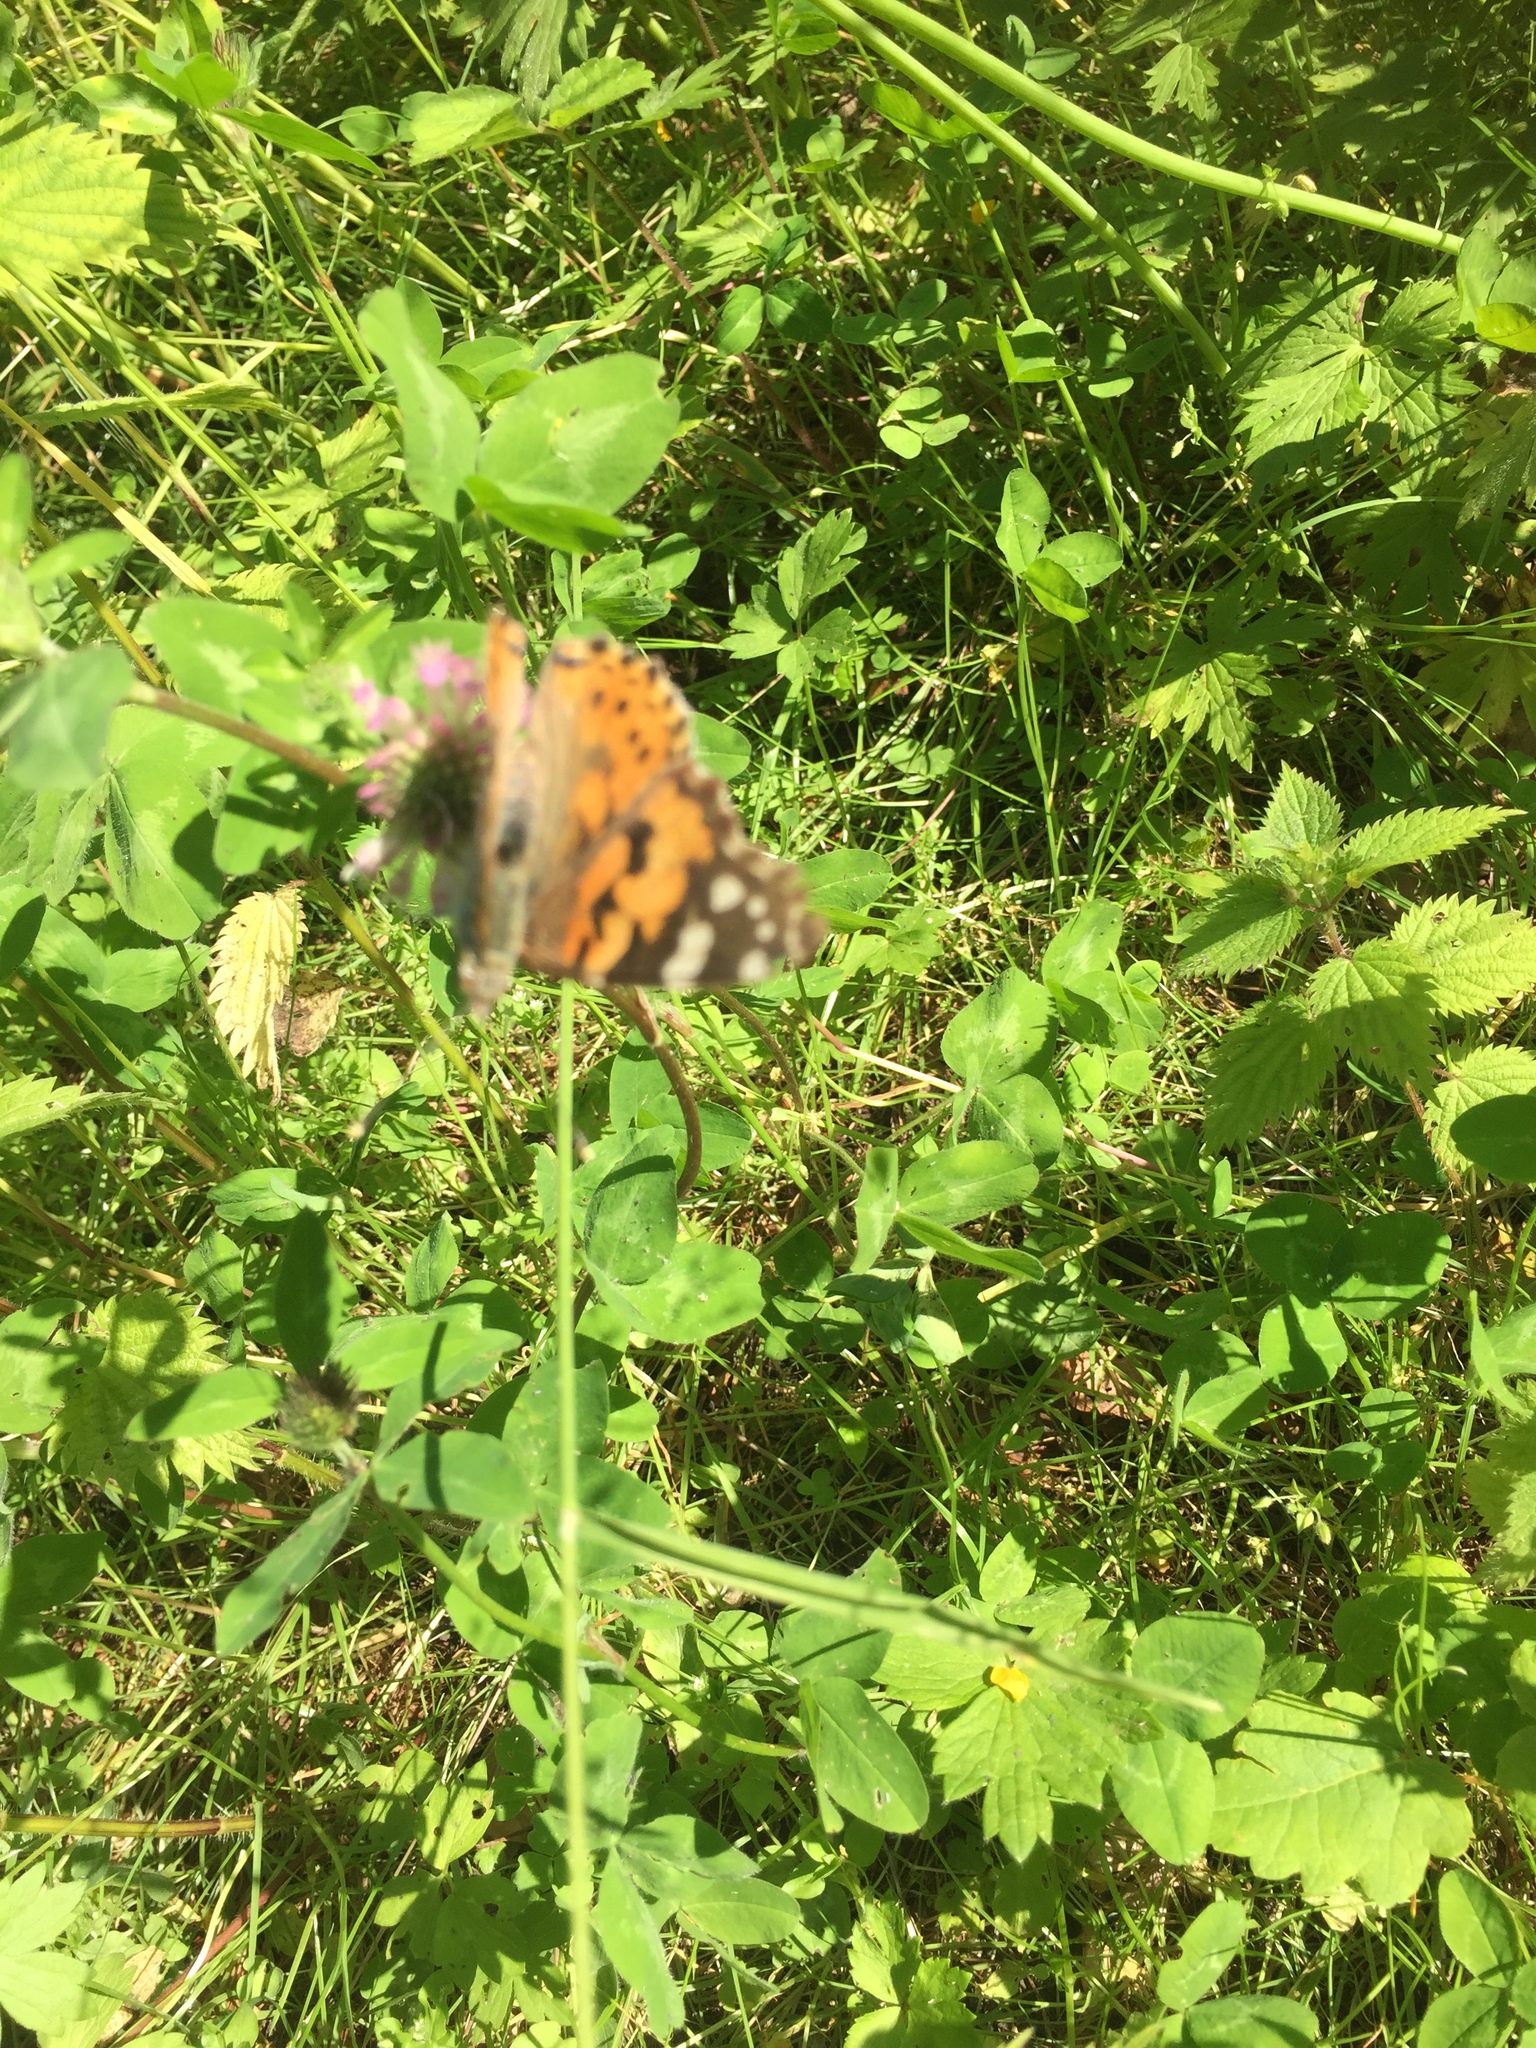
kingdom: Animalia
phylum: Arthropoda
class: Insecta
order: Lepidoptera
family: Nymphalidae
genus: Vanessa
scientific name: Vanessa cardui
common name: Painted lady
